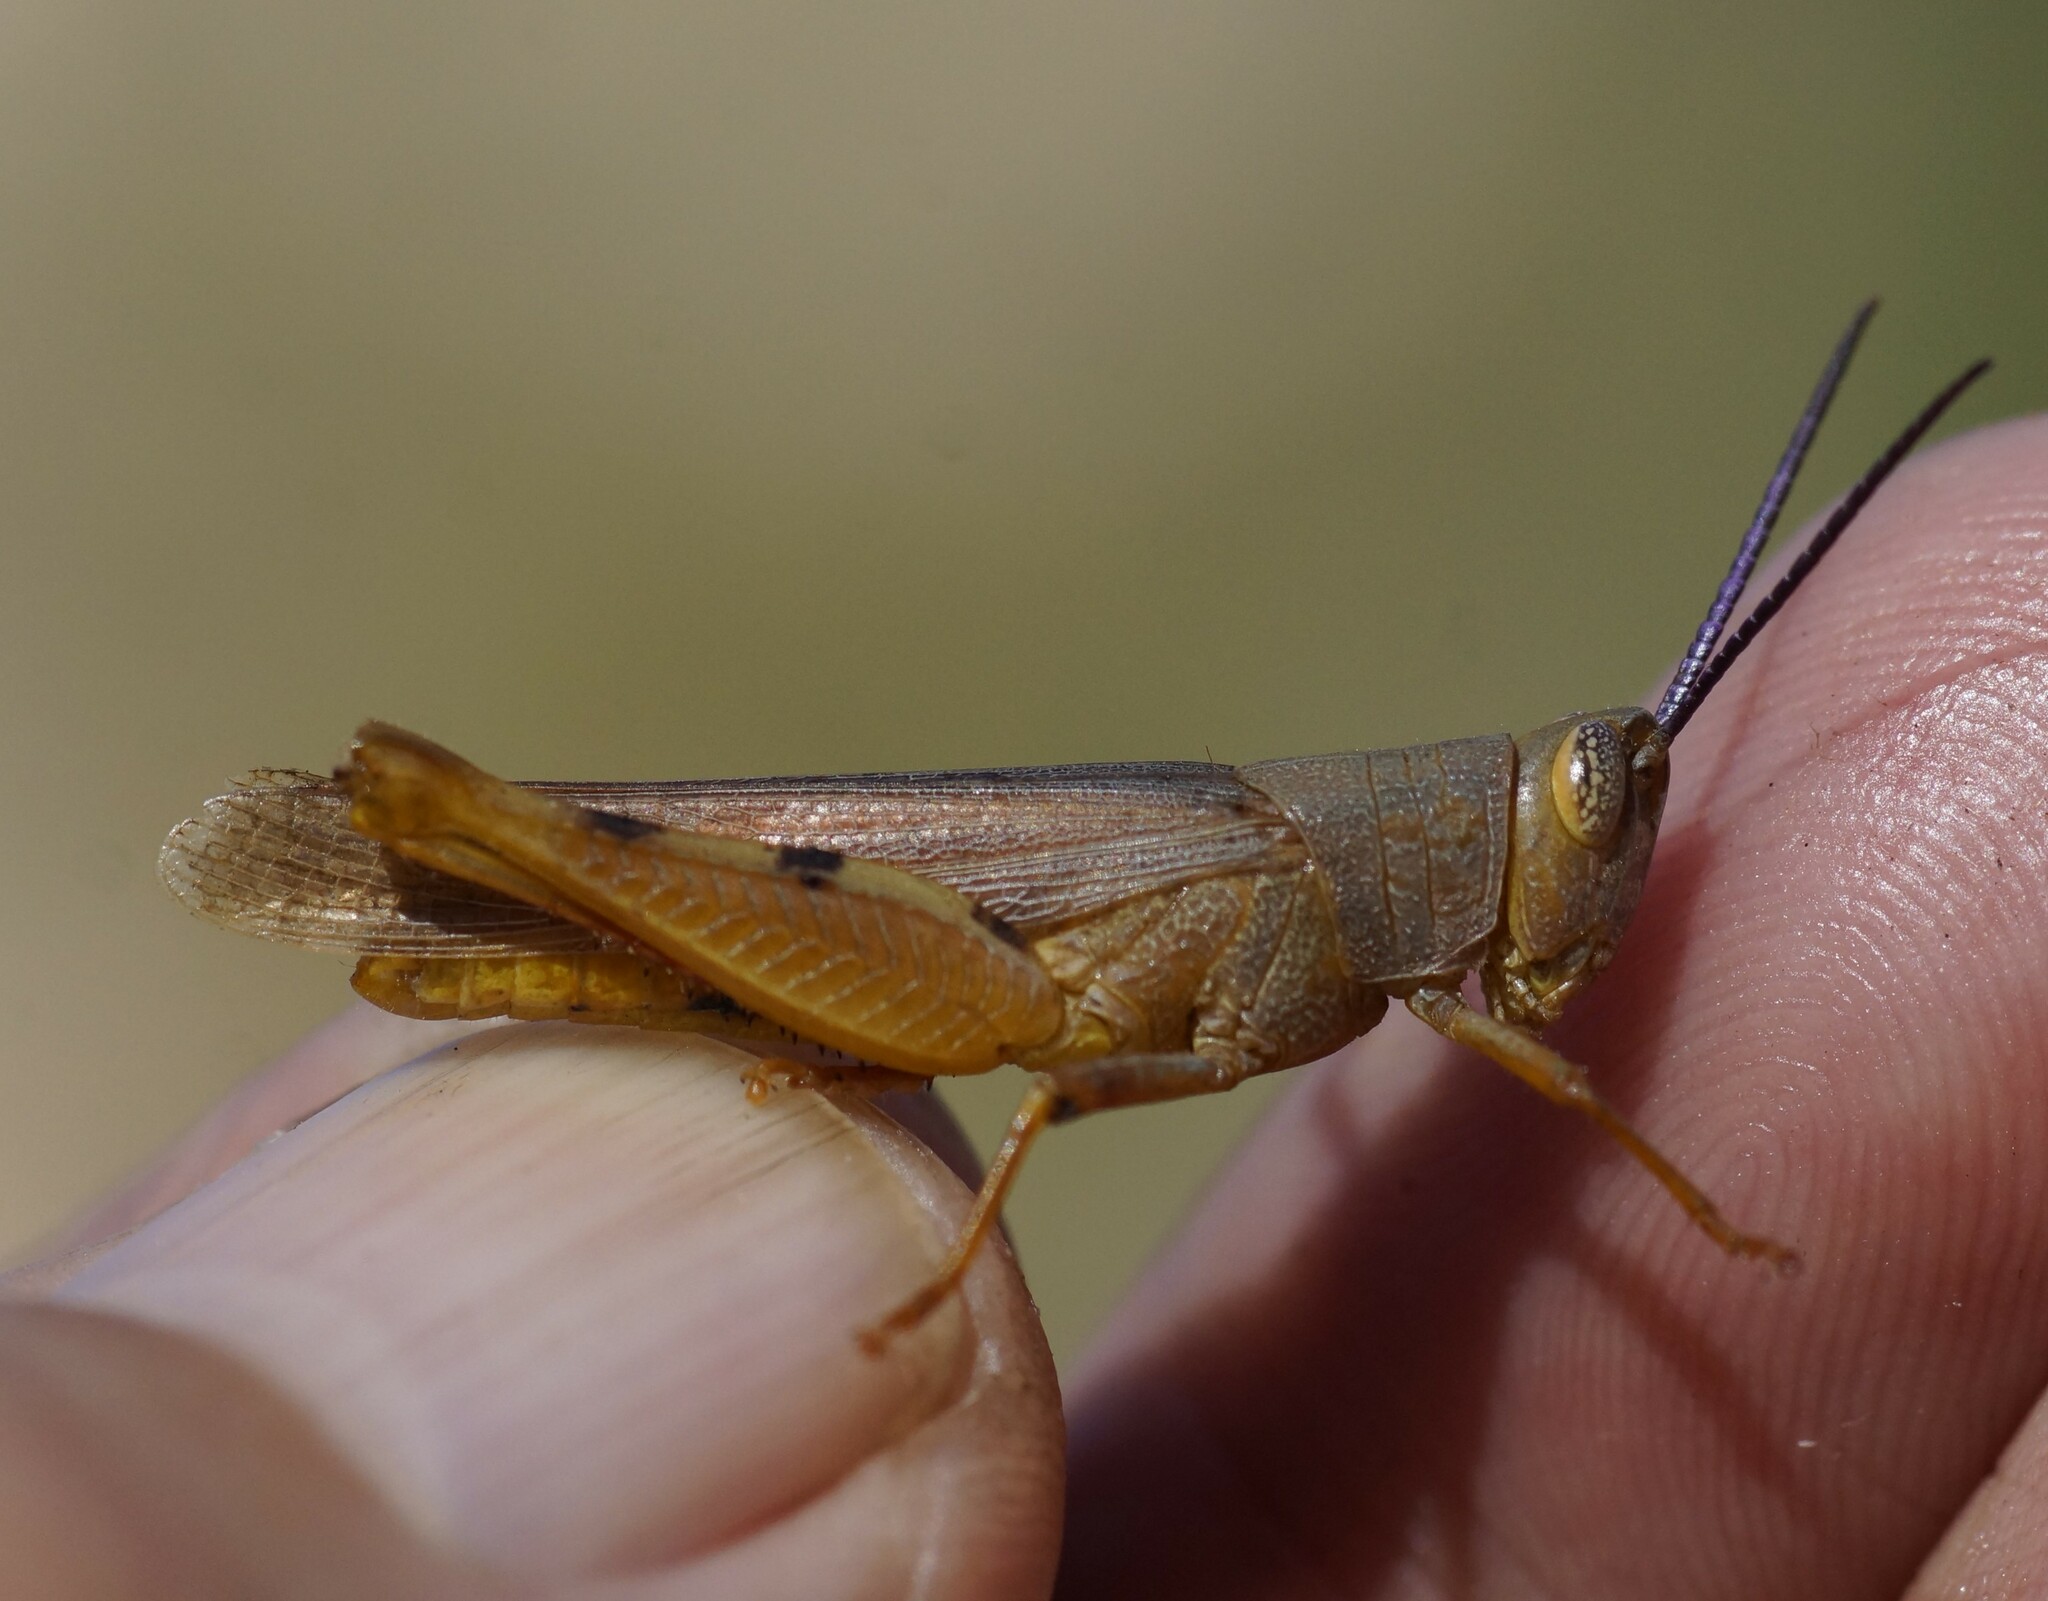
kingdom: Animalia
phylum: Arthropoda
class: Insecta
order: Orthoptera
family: Acrididae
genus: Adlappa
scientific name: Adlappa erythroptera
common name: Speckled red-wing
